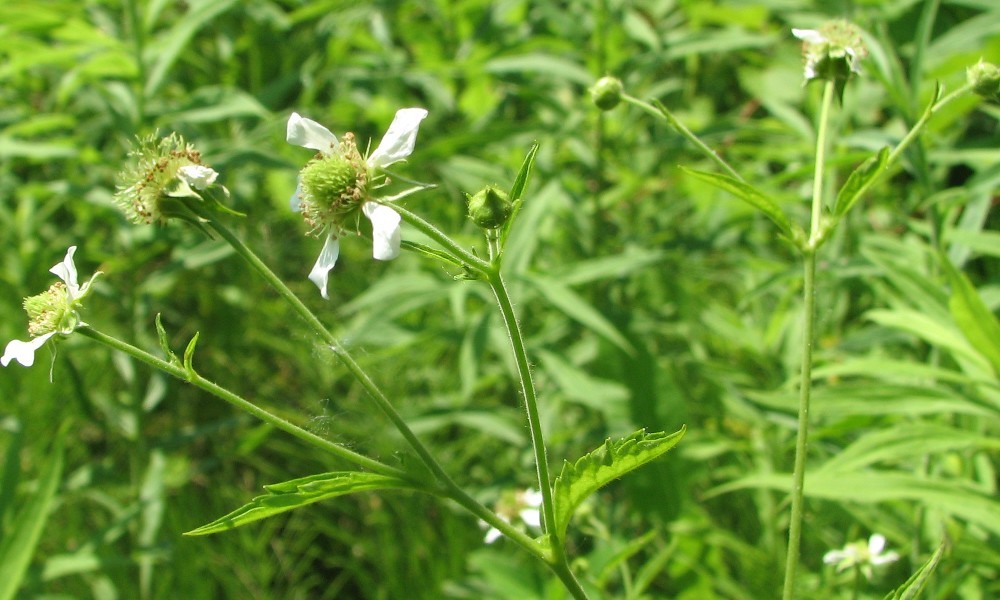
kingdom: Plantae
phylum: Tracheophyta
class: Magnoliopsida
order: Rosales
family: Rosaceae
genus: Geum
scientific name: Geum canadense
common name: White avens
